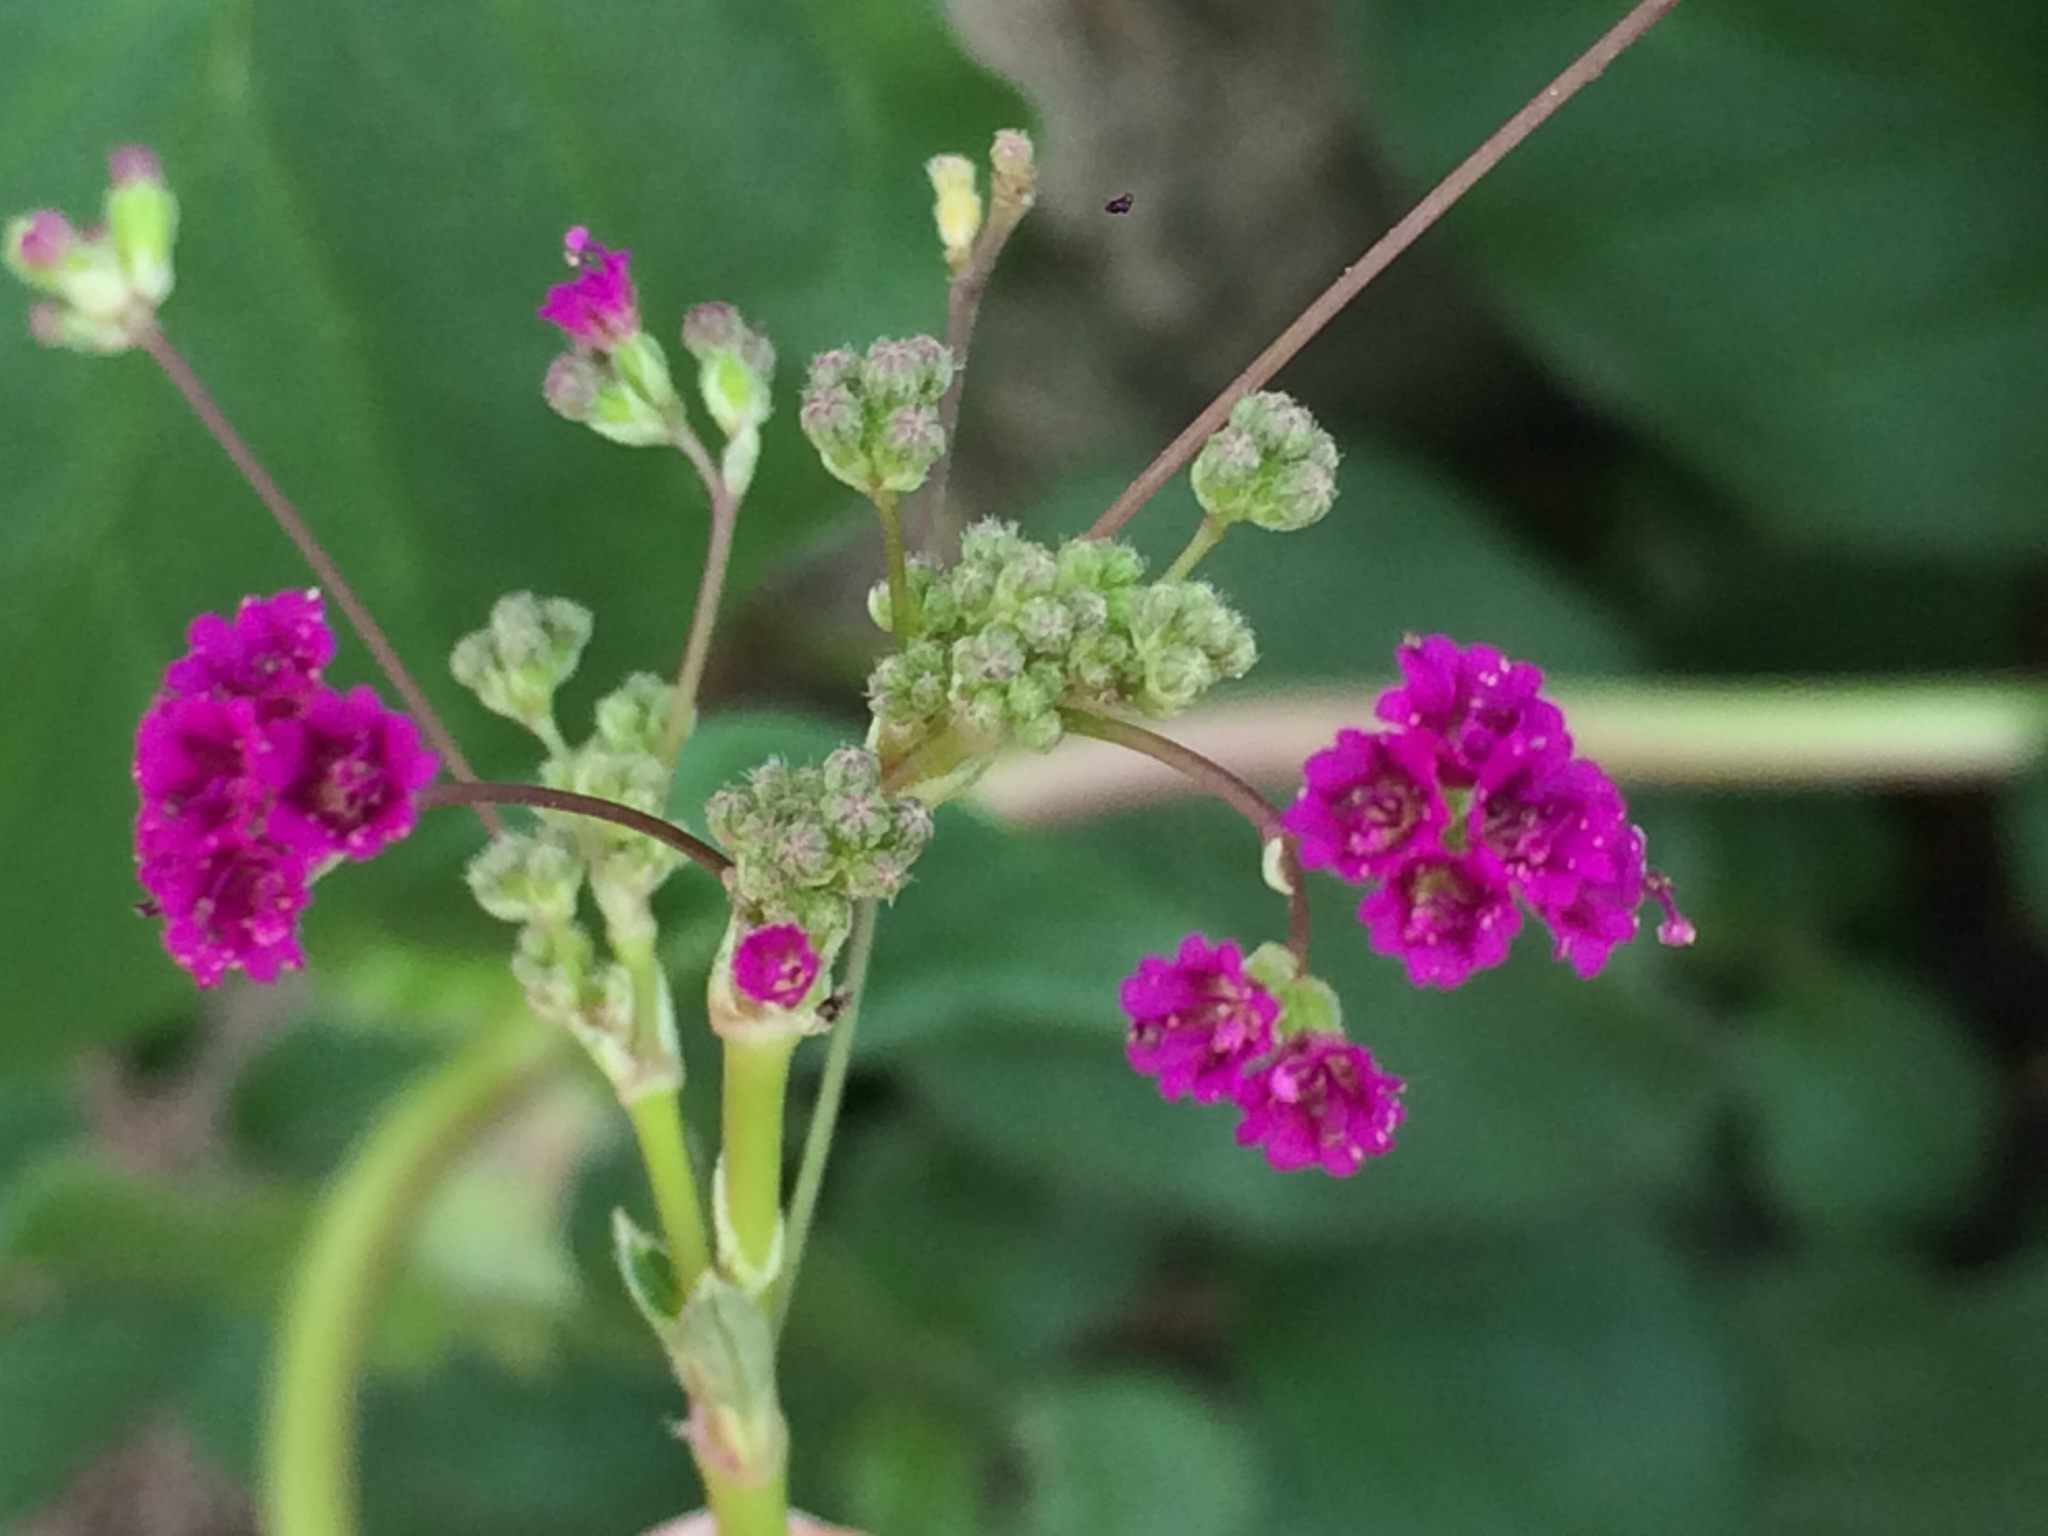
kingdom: Plantae
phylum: Tracheophyta
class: Magnoliopsida
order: Caryophyllales
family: Nyctaginaceae
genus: Boerhavia
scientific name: Boerhavia diffusa
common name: Red spiderling
